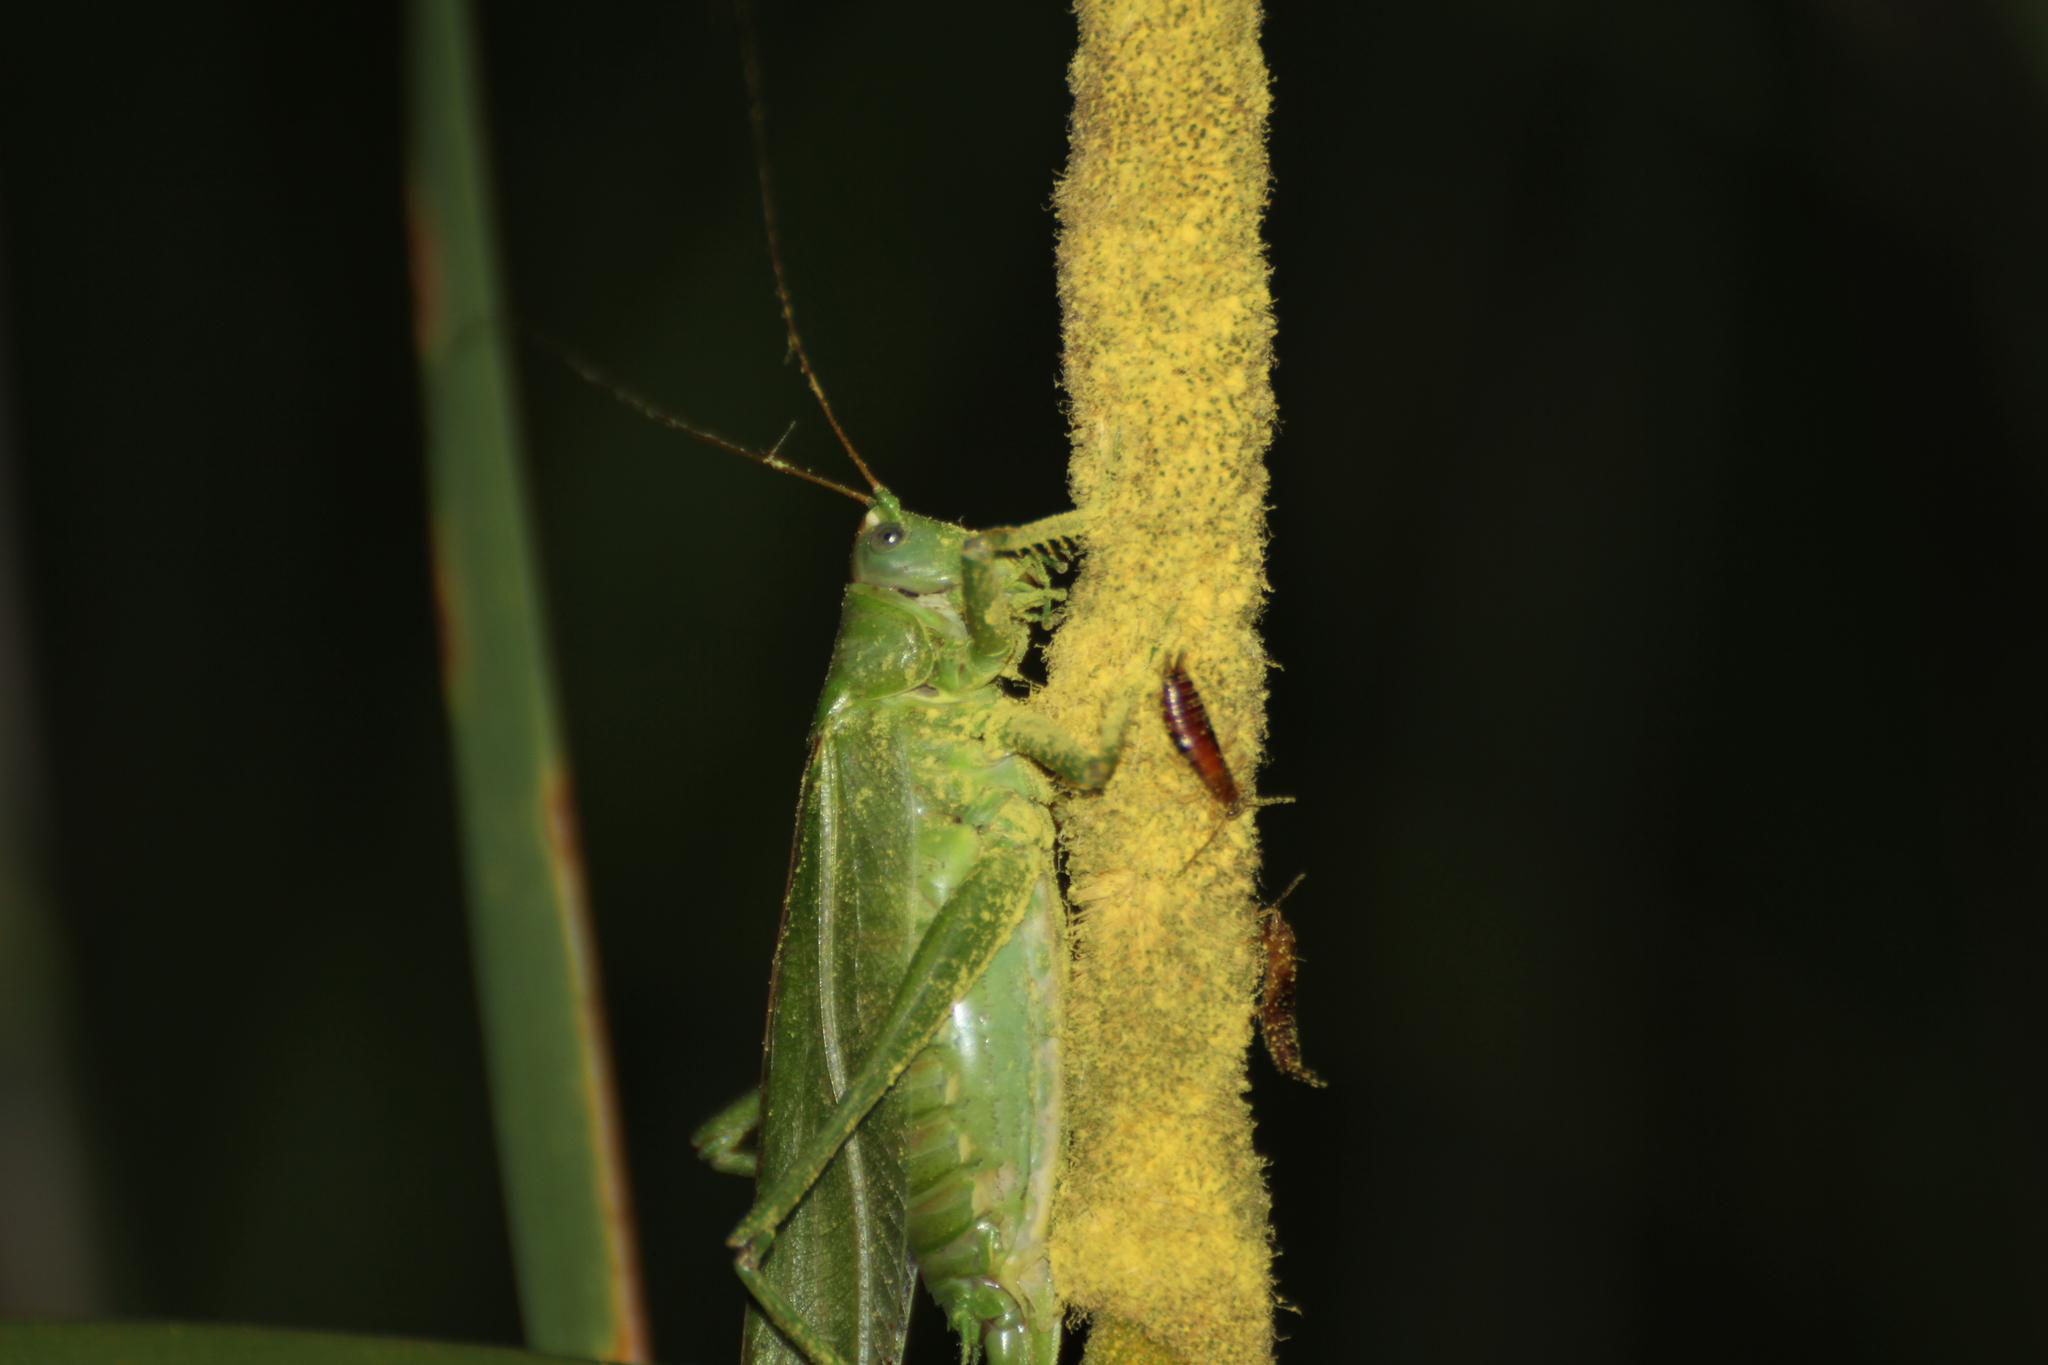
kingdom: Animalia
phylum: Arthropoda
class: Insecta
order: Orthoptera
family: Tettigoniidae
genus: Tettigonia
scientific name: Tettigonia viridissima
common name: Great green bush-cricket
